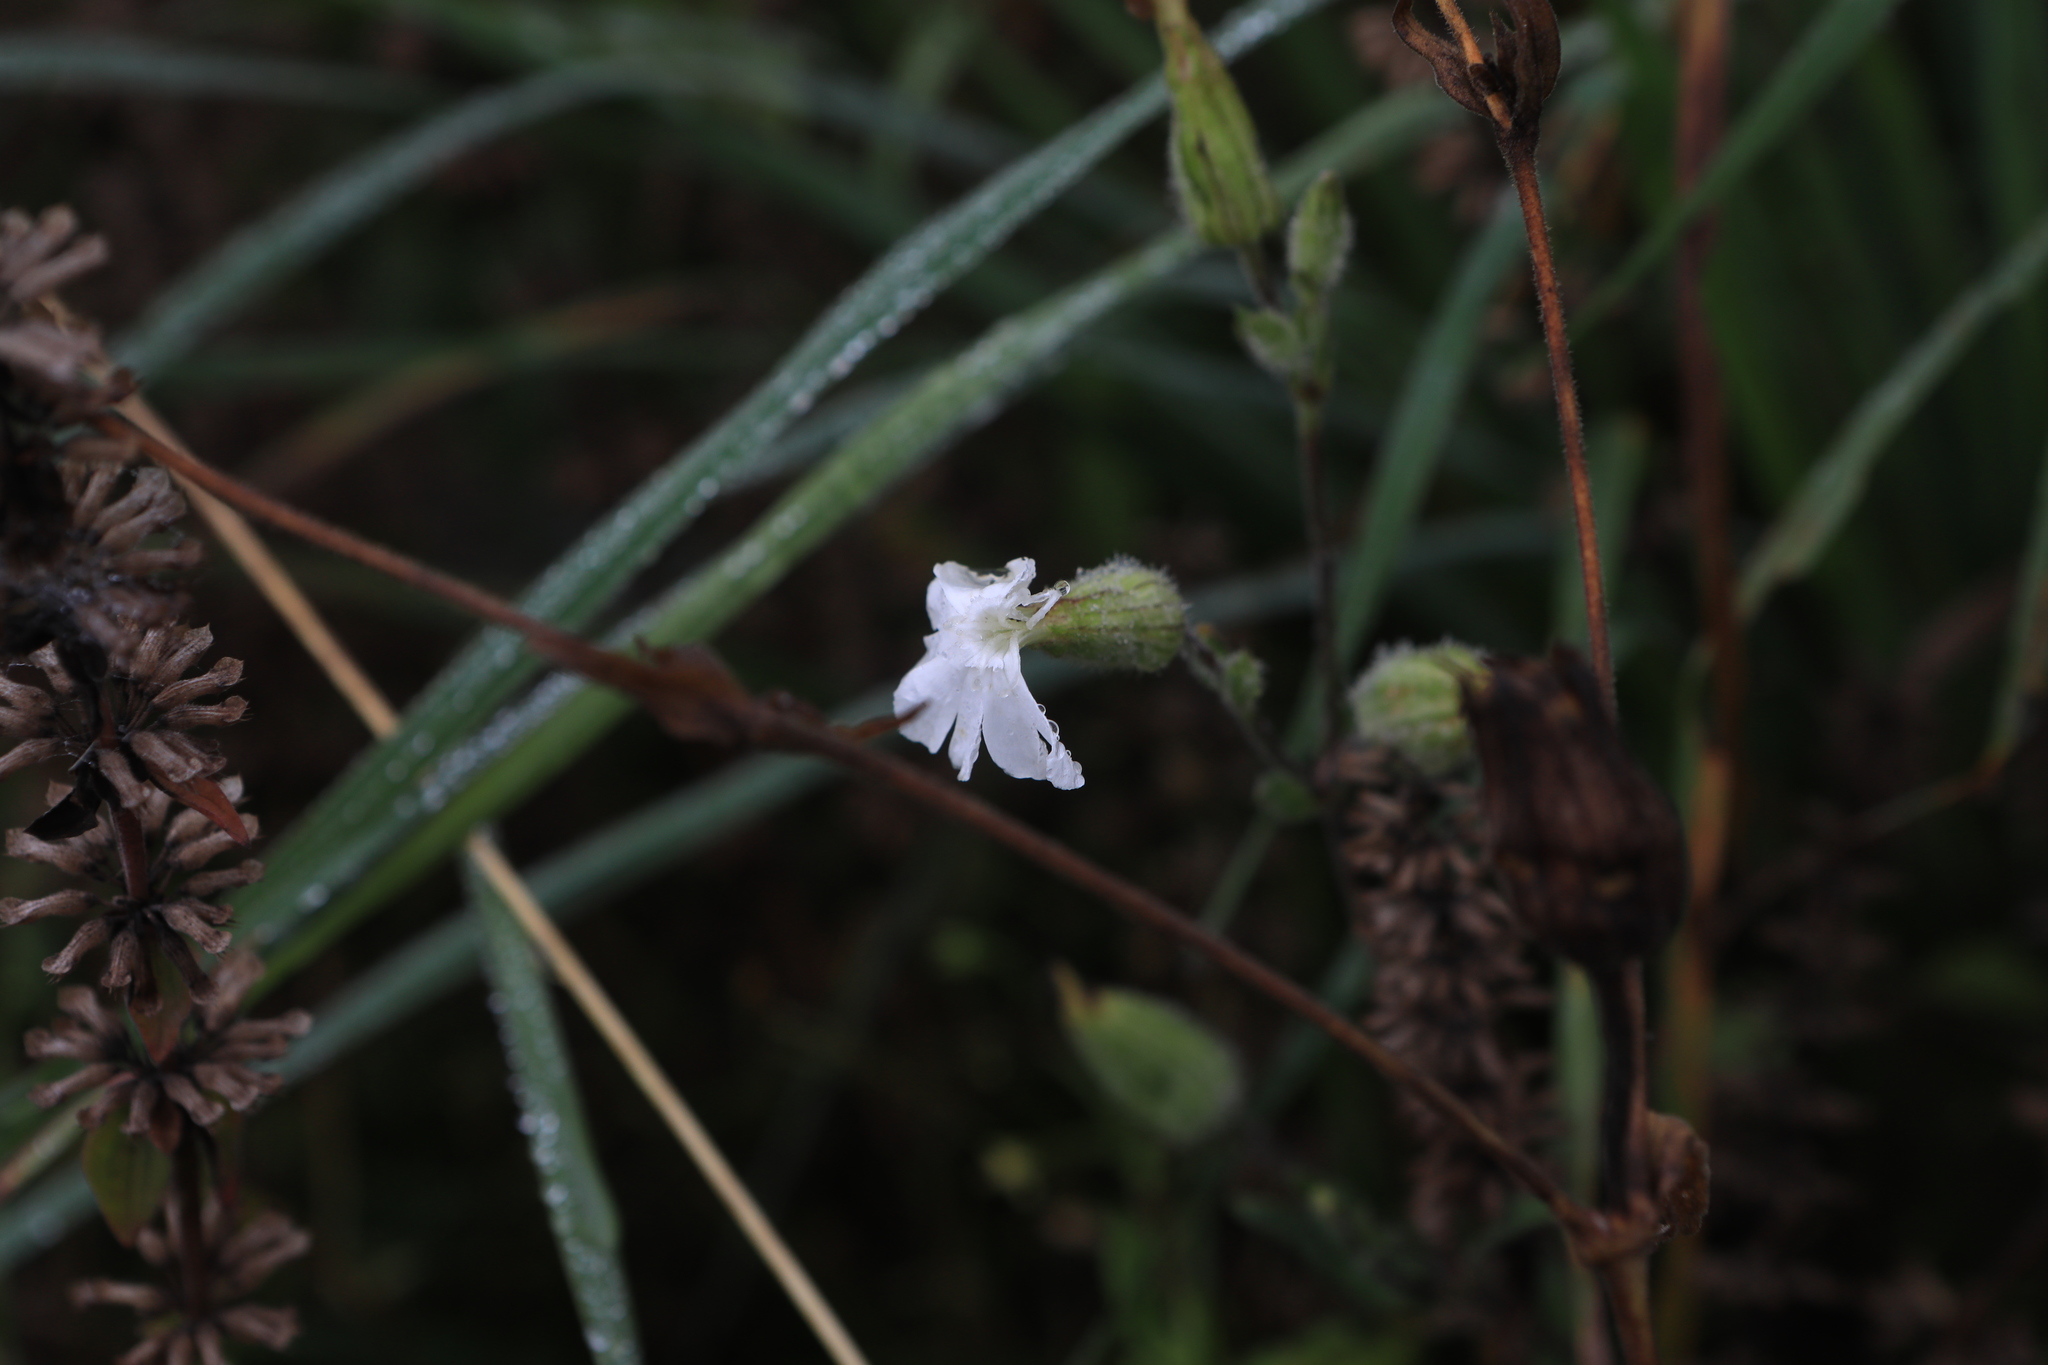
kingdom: Plantae
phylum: Tracheophyta
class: Magnoliopsida
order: Caryophyllales
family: Caryophyllaceae
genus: Silene
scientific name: Silene latifolia
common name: White campion
